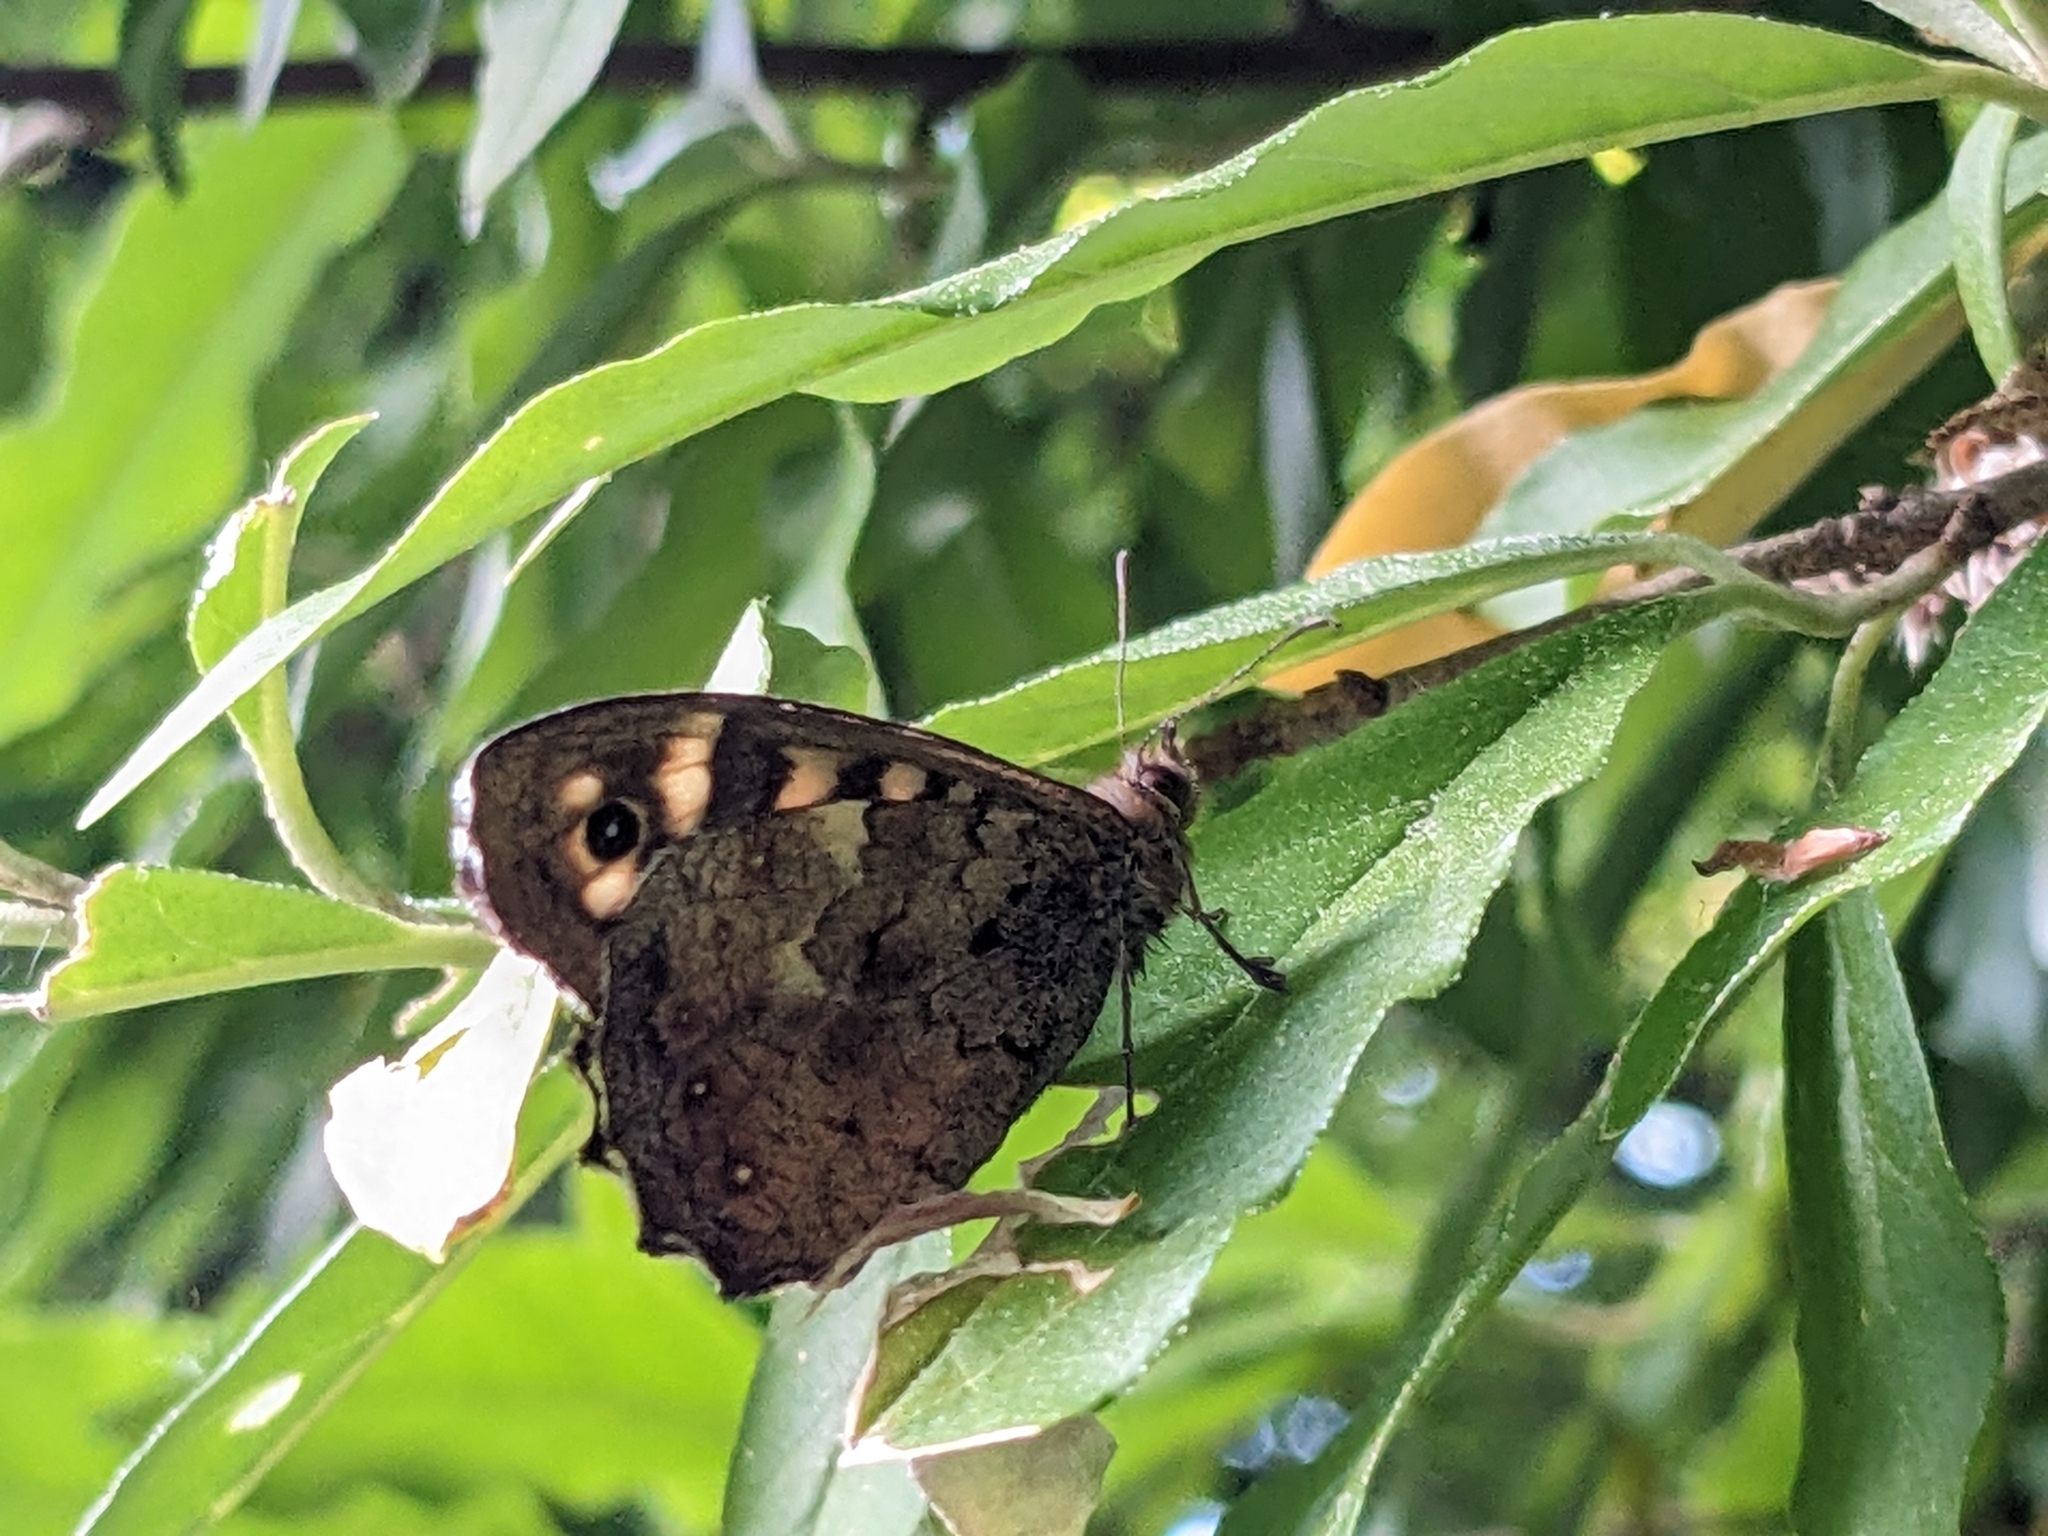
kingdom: Animalia
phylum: Arthropoda
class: Insecta
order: Lepidoptera
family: Nymphalidae
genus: Pararge
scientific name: Pararge aegeria
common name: Speckled wood
